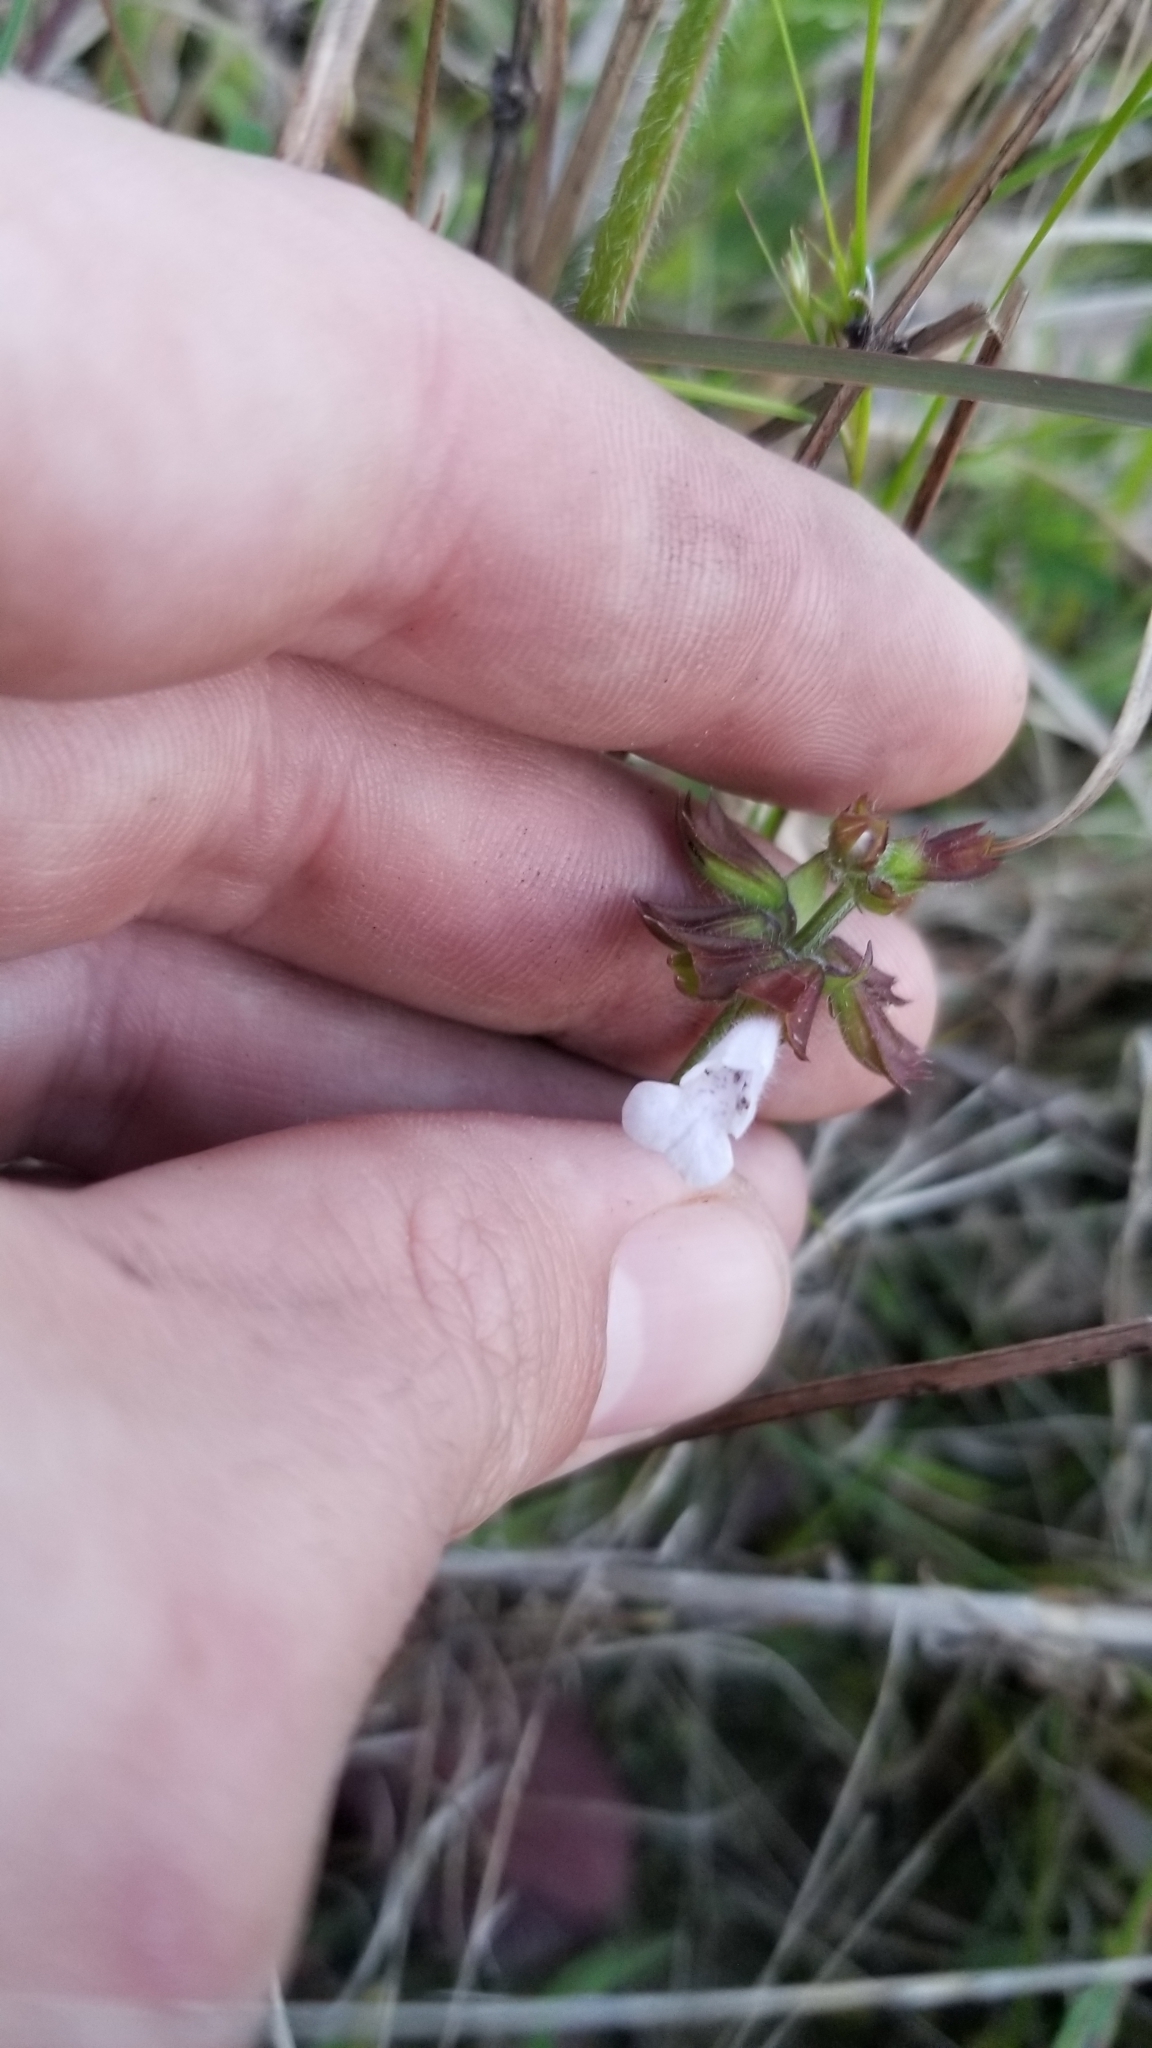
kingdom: Plantae
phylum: Tracheophyta
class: Magnoliopsida
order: Lamiales
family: Lamiaceae
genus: Salvia
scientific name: Salvia lyrata
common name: Cancerweed
